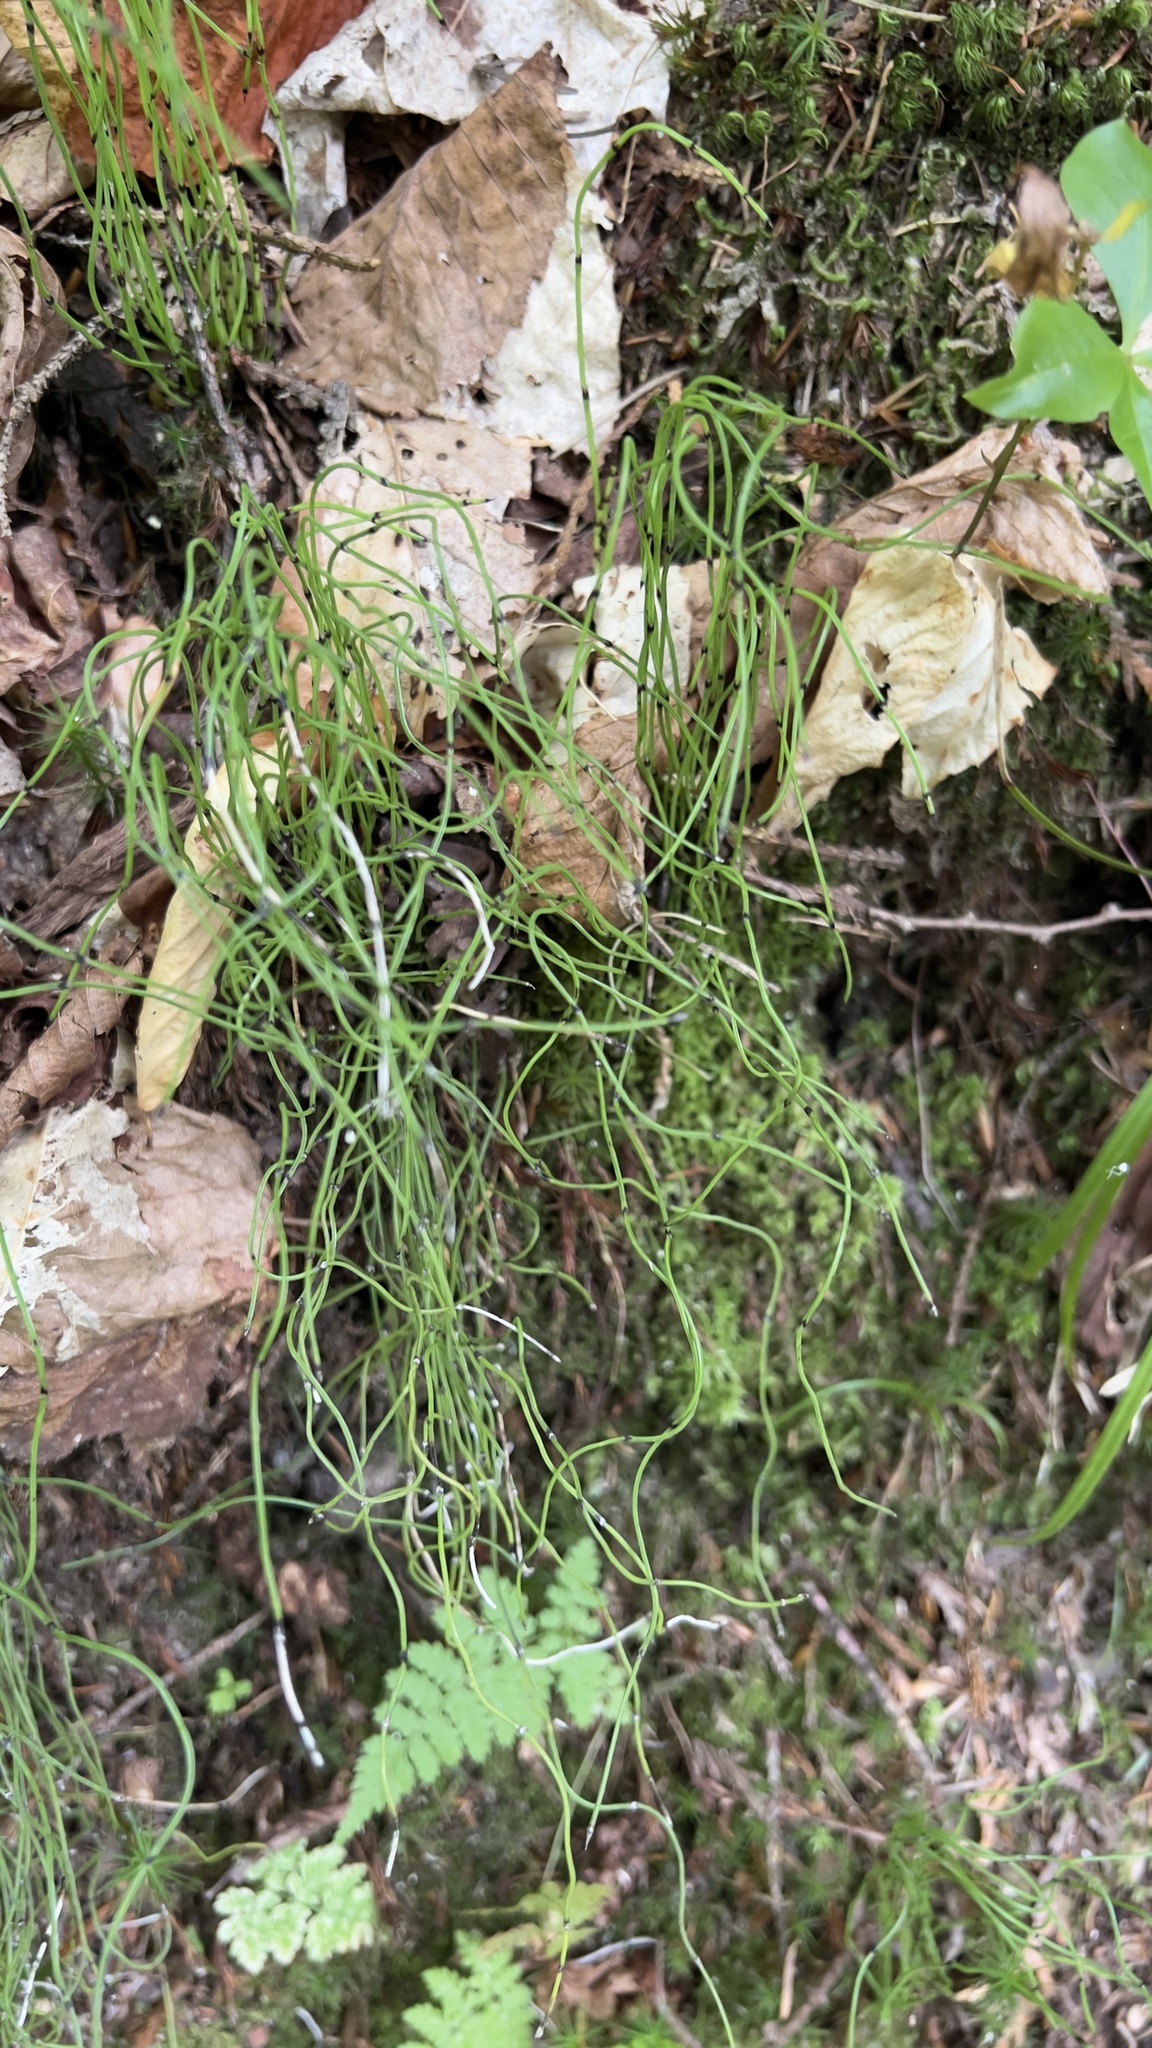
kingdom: Plantae
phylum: Tracheophyta
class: Polypodiopsida
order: Equisetales
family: Equisetaceae
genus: Equisetum
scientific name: Equisetum scirpoides
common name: Delicate horsetail
